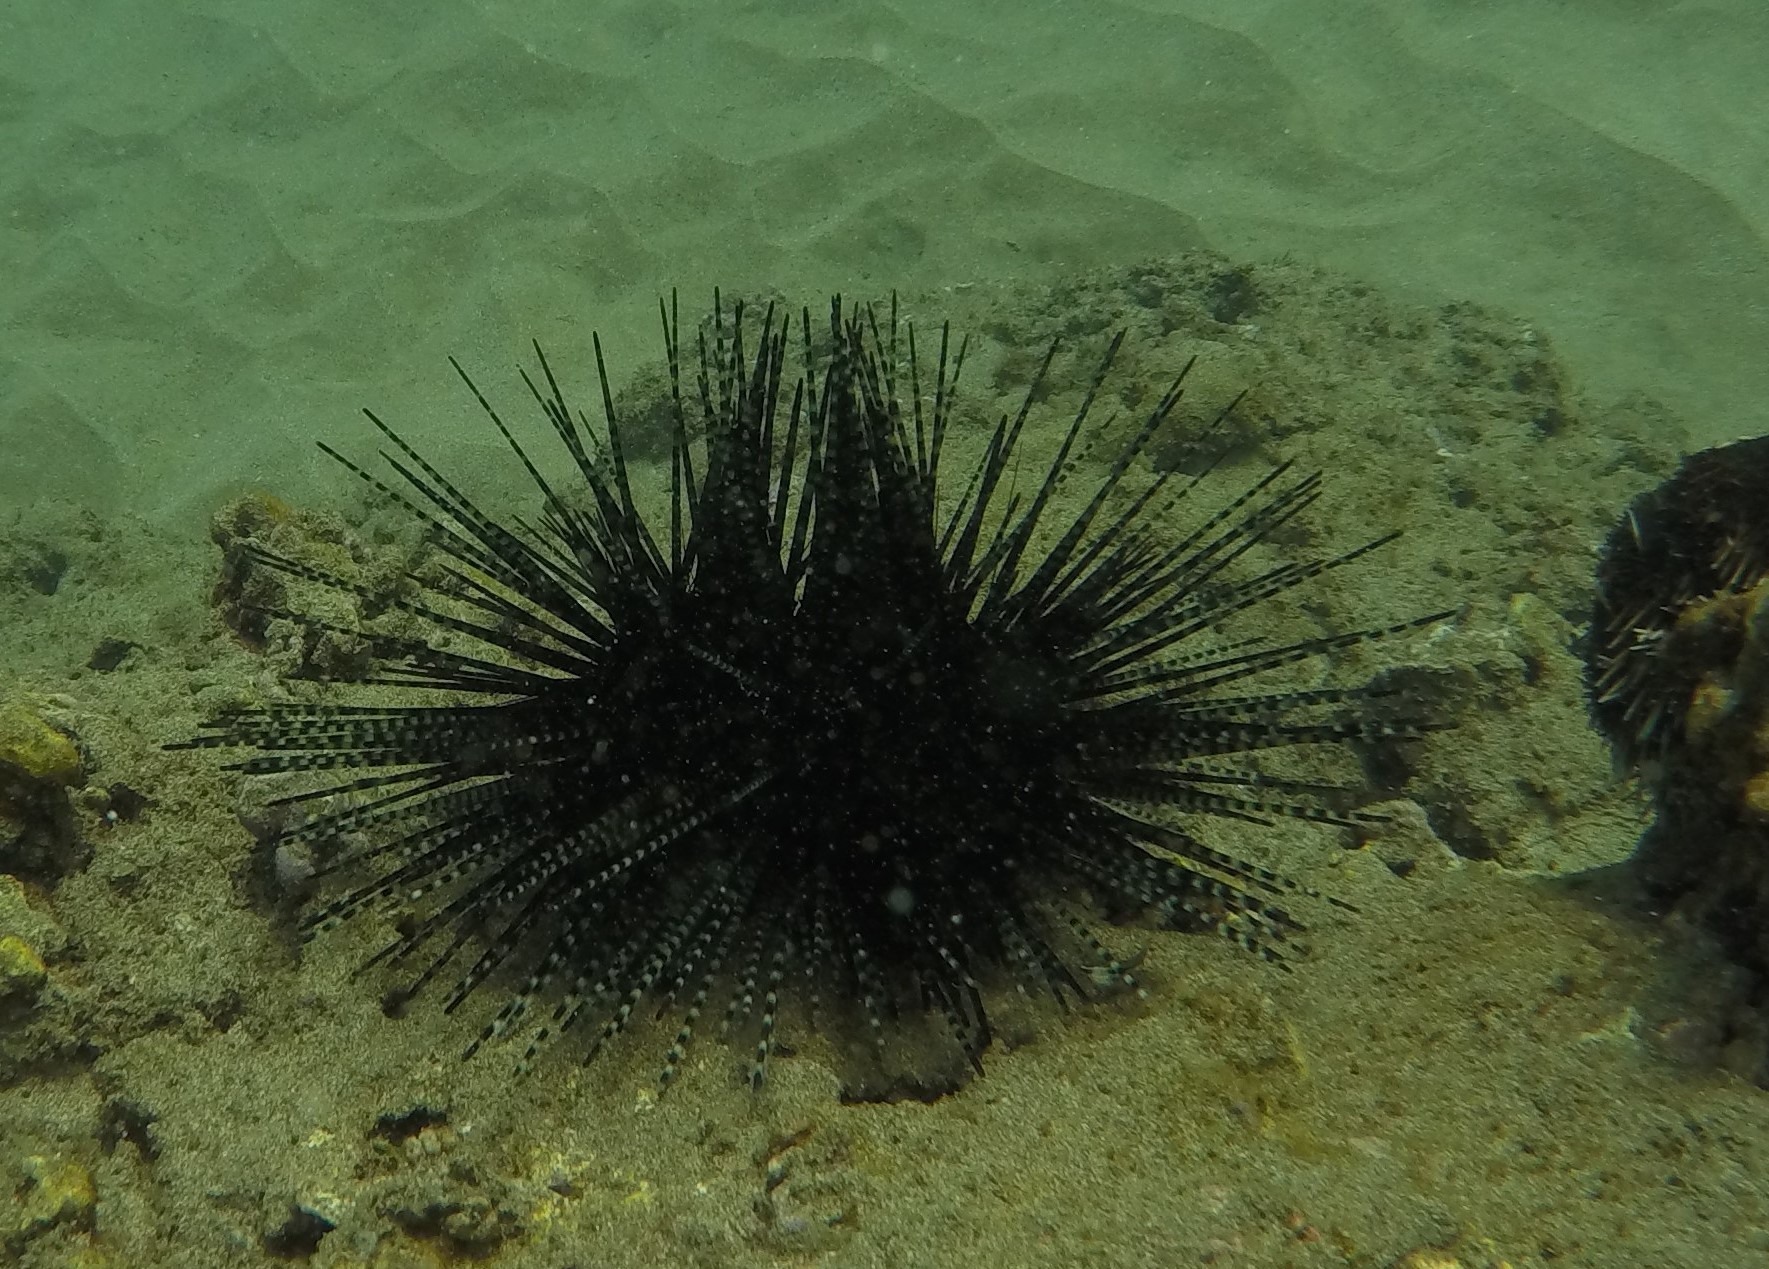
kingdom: Animalia
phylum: Echinodermata
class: Echinoidea
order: Diadematoida
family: Diadematidae
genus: Echinothrix
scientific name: Echinothrix calamaris
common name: Banded sea urchin
